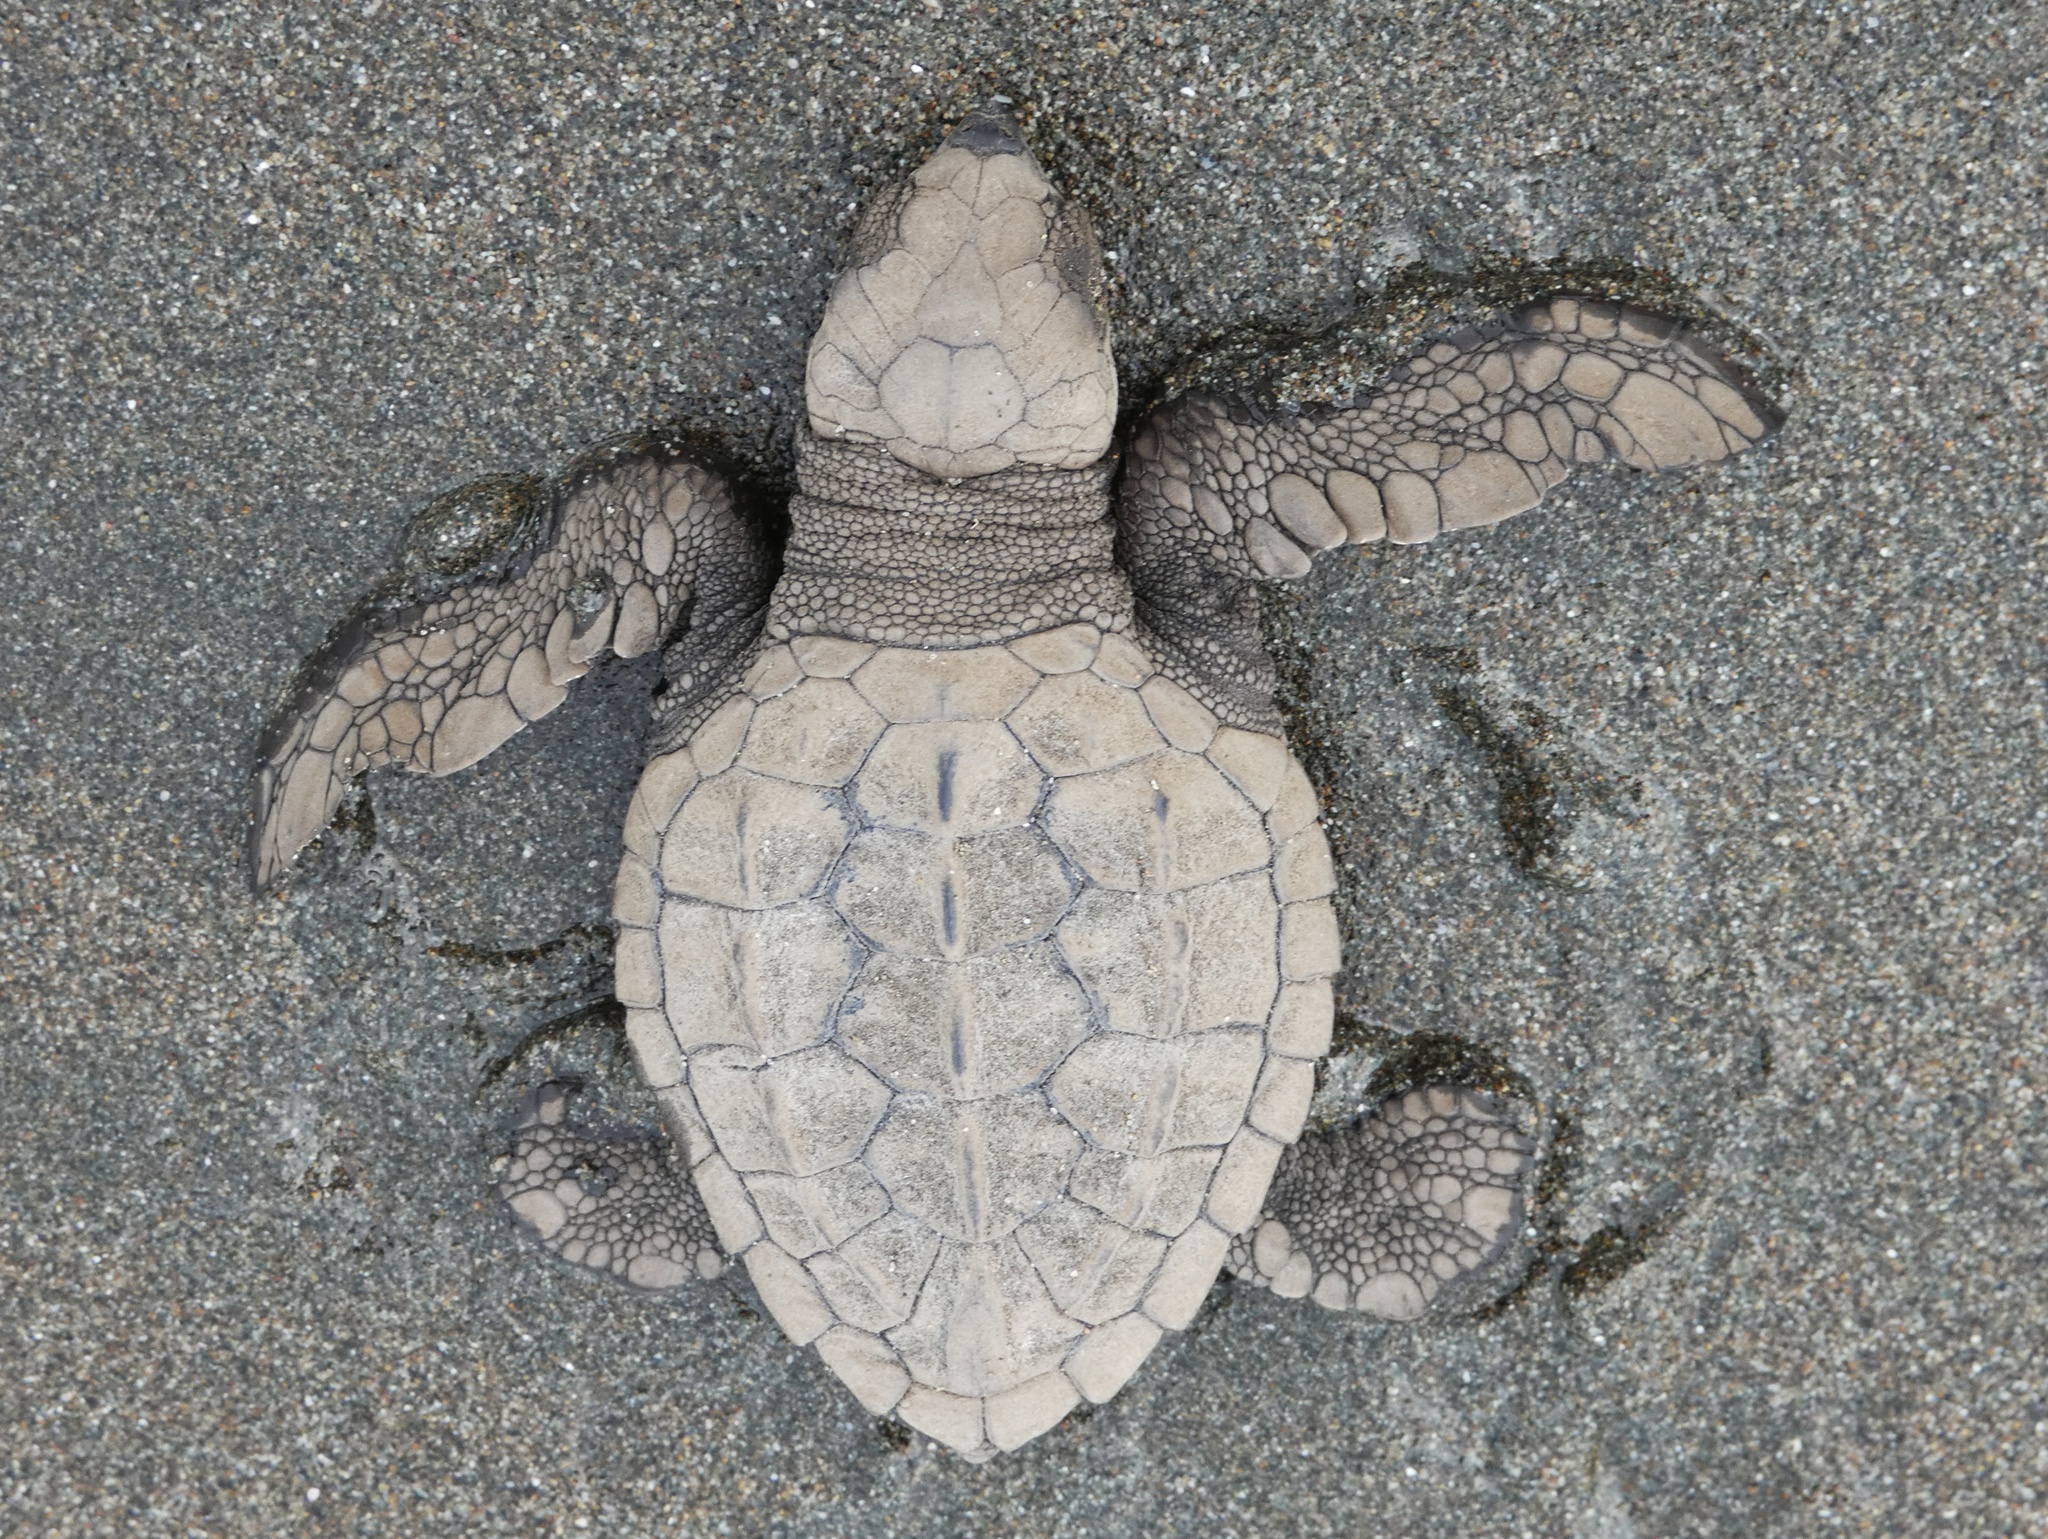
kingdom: Animalia
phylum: Chordata
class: Testudines
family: Cheloniidae
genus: Lepidochelys
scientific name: Lepidochelys olivacea
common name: Olive ridley
